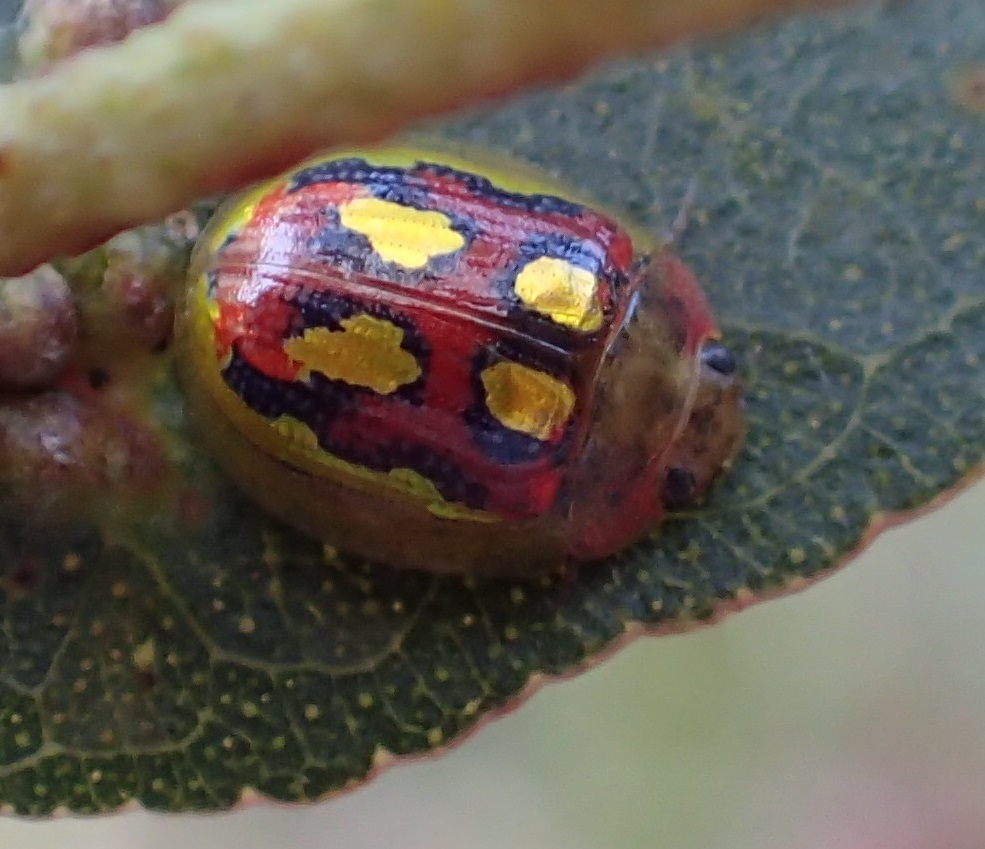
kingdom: Animalia
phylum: Arthropoda
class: Insecta
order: Coleoptera
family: Chrysomelidae
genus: Paropsisterna
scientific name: Paropsisterna
